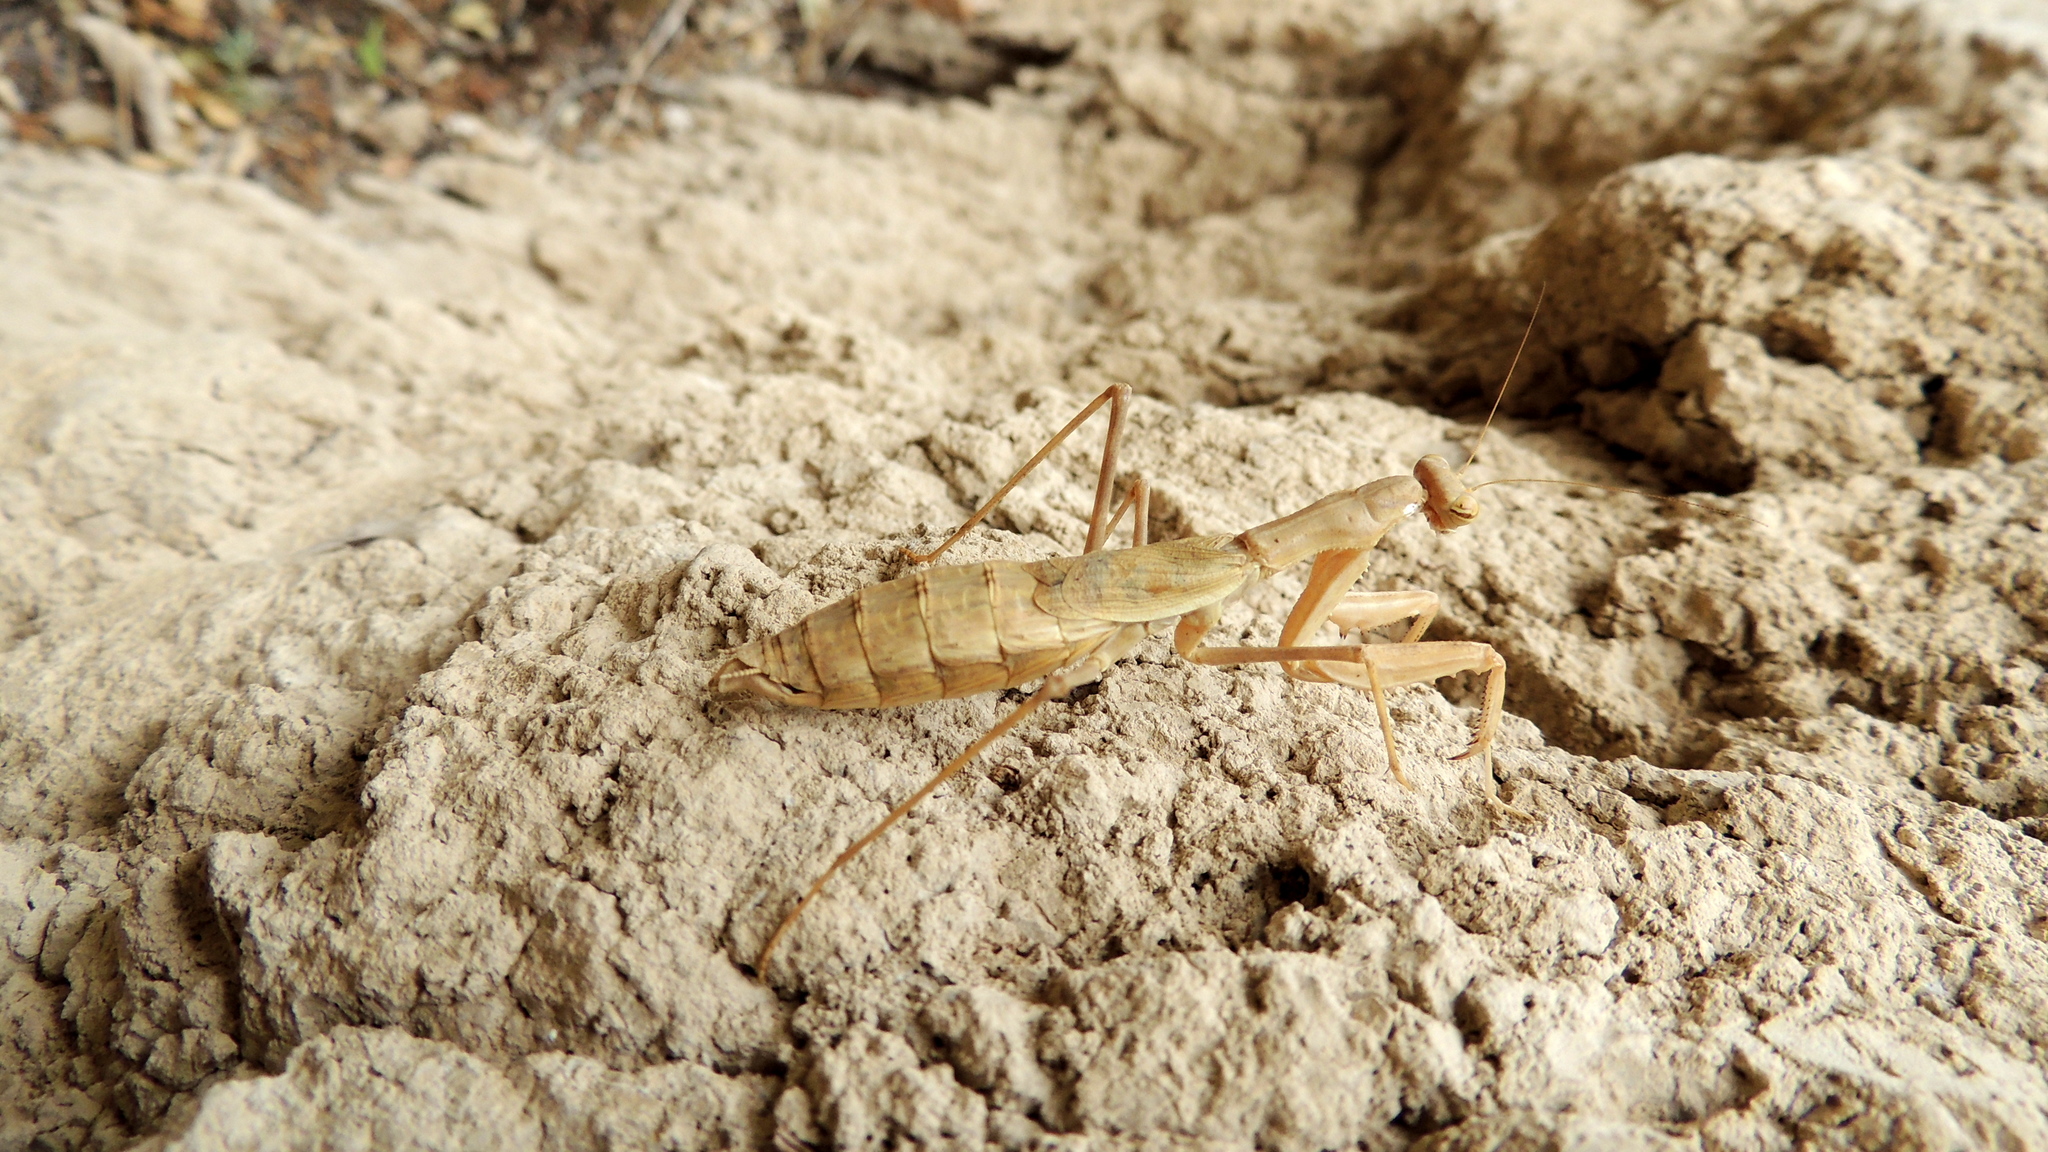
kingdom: Animalia
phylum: Arthropoda
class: Insecta
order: Mantodea
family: Rivetinidae
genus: Bolivaria
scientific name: Bolivaria brachyptera
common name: Bolivar's short winged mantis
